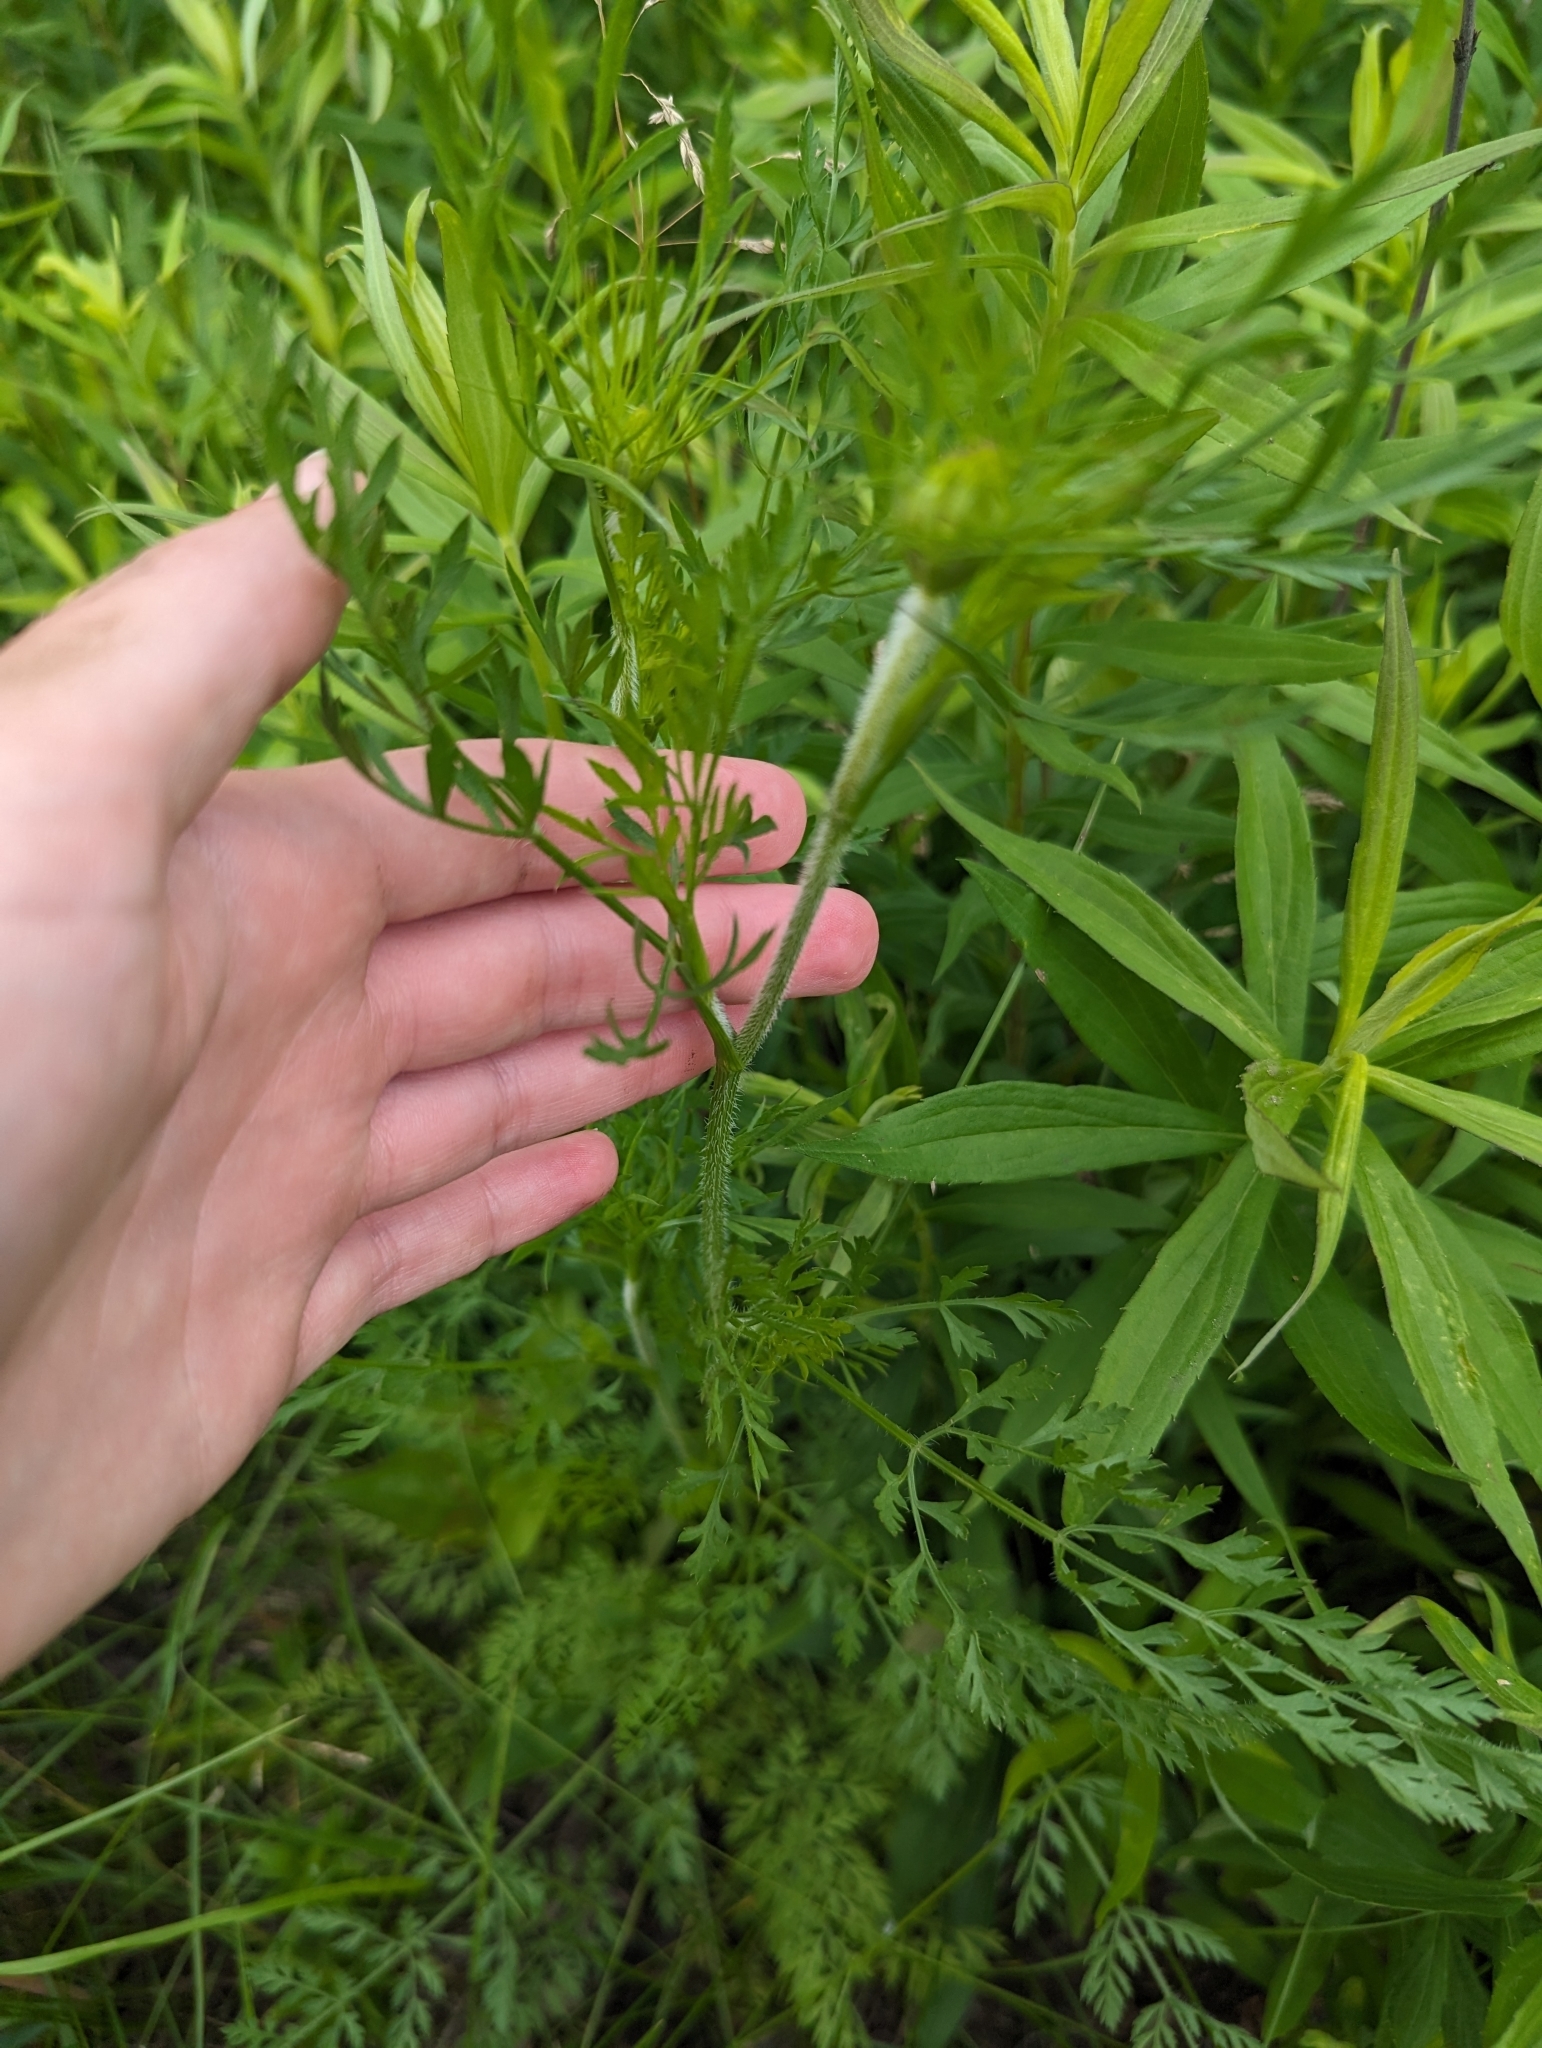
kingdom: Plantae
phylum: Tracheophyta
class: Magnoliopsida
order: Apiales
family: Apiaceae
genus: Daucus
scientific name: Daucus carota
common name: Wild carrot
